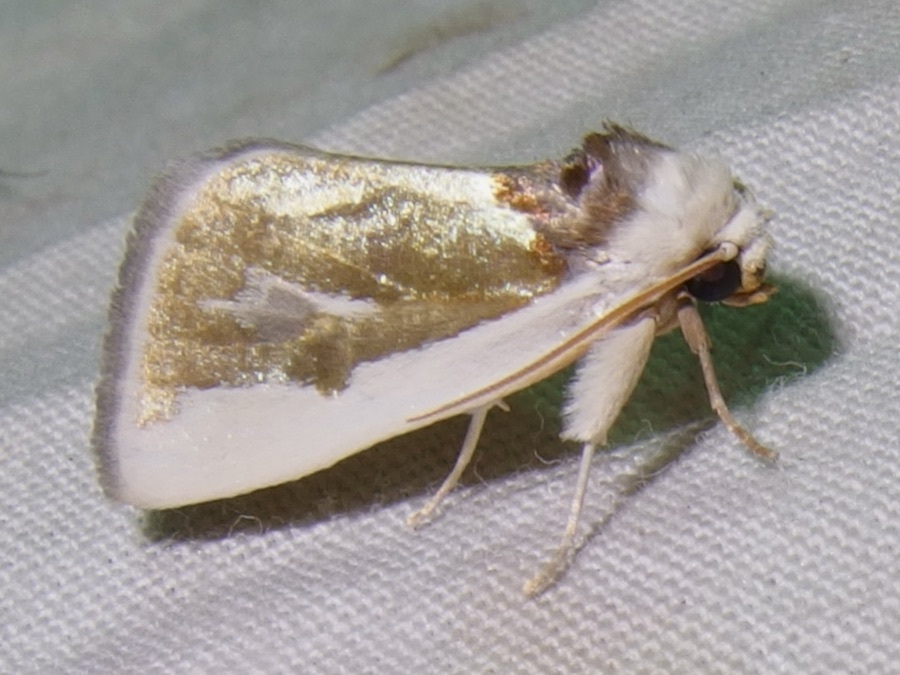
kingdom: Animalia
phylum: Arthropoda
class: Insecta
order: Lepidoptera
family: Noctuidae
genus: Neumoegenia
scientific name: Neumoegenia poetica
